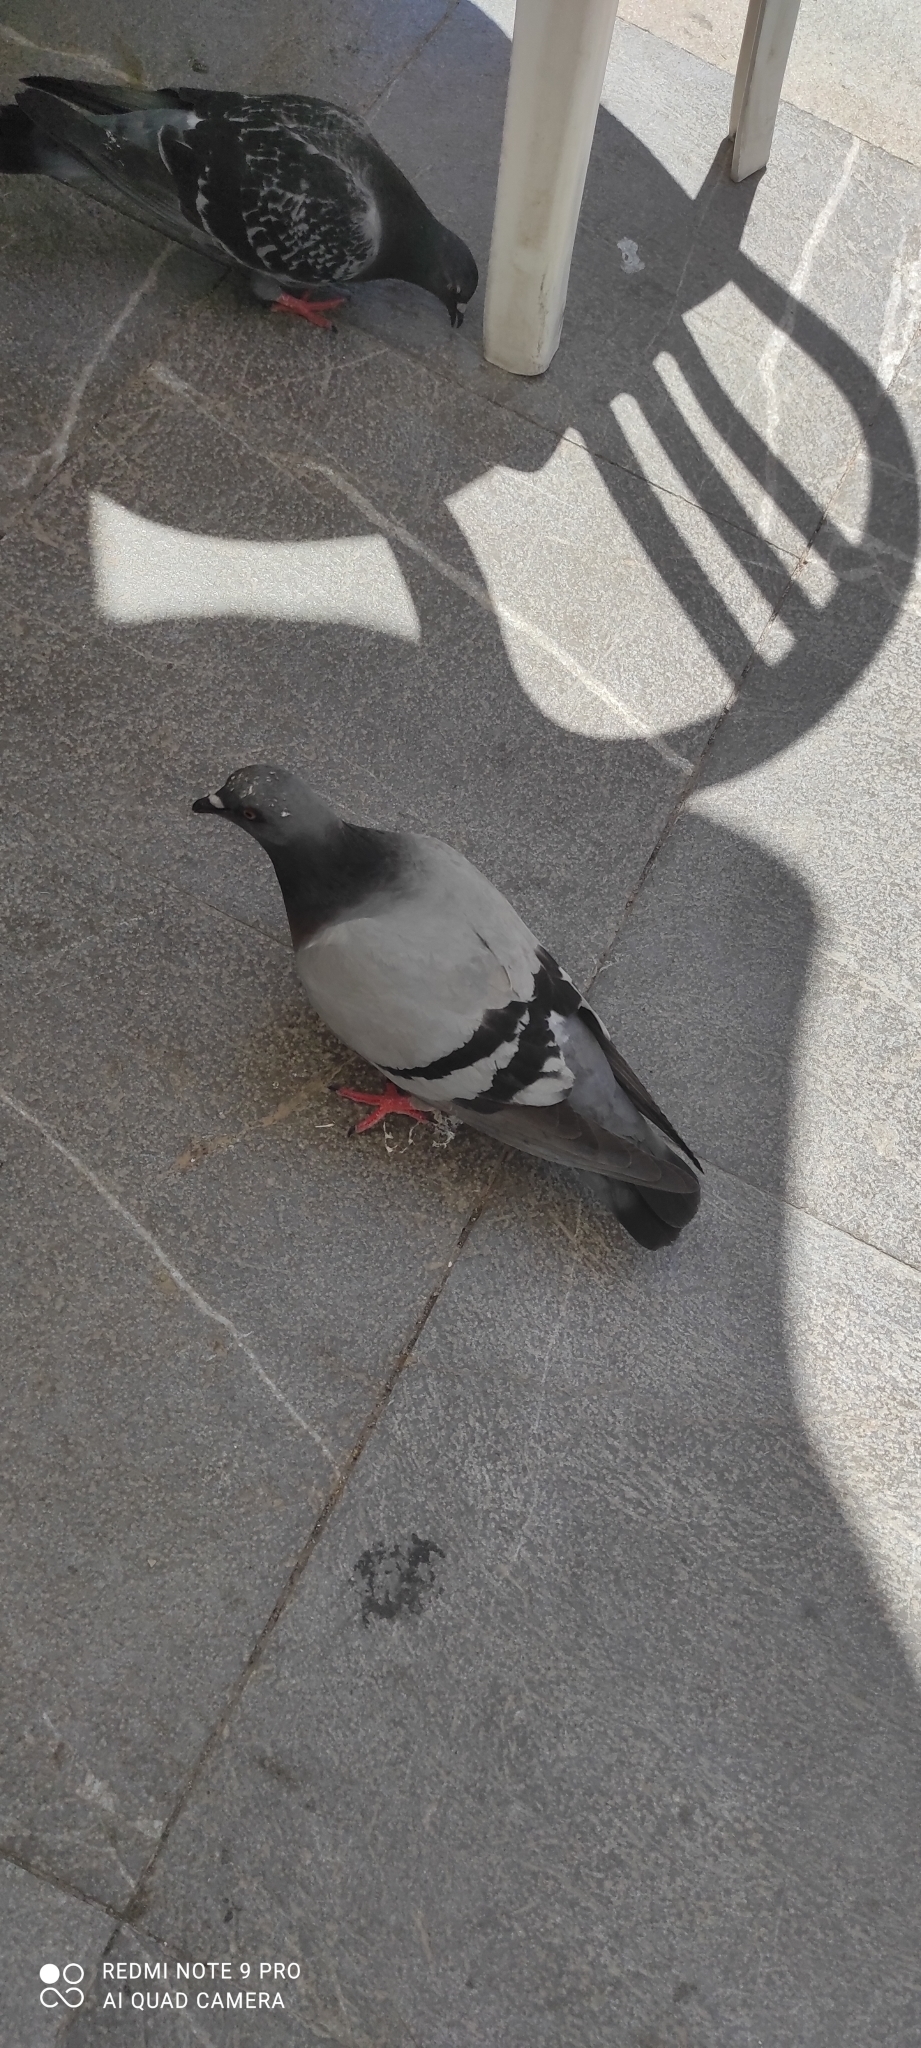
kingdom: Animalia
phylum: Chordata
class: Aves
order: Columbiformes
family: Columbidae
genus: Columba
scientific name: Columba livia
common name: Rock pigeon
